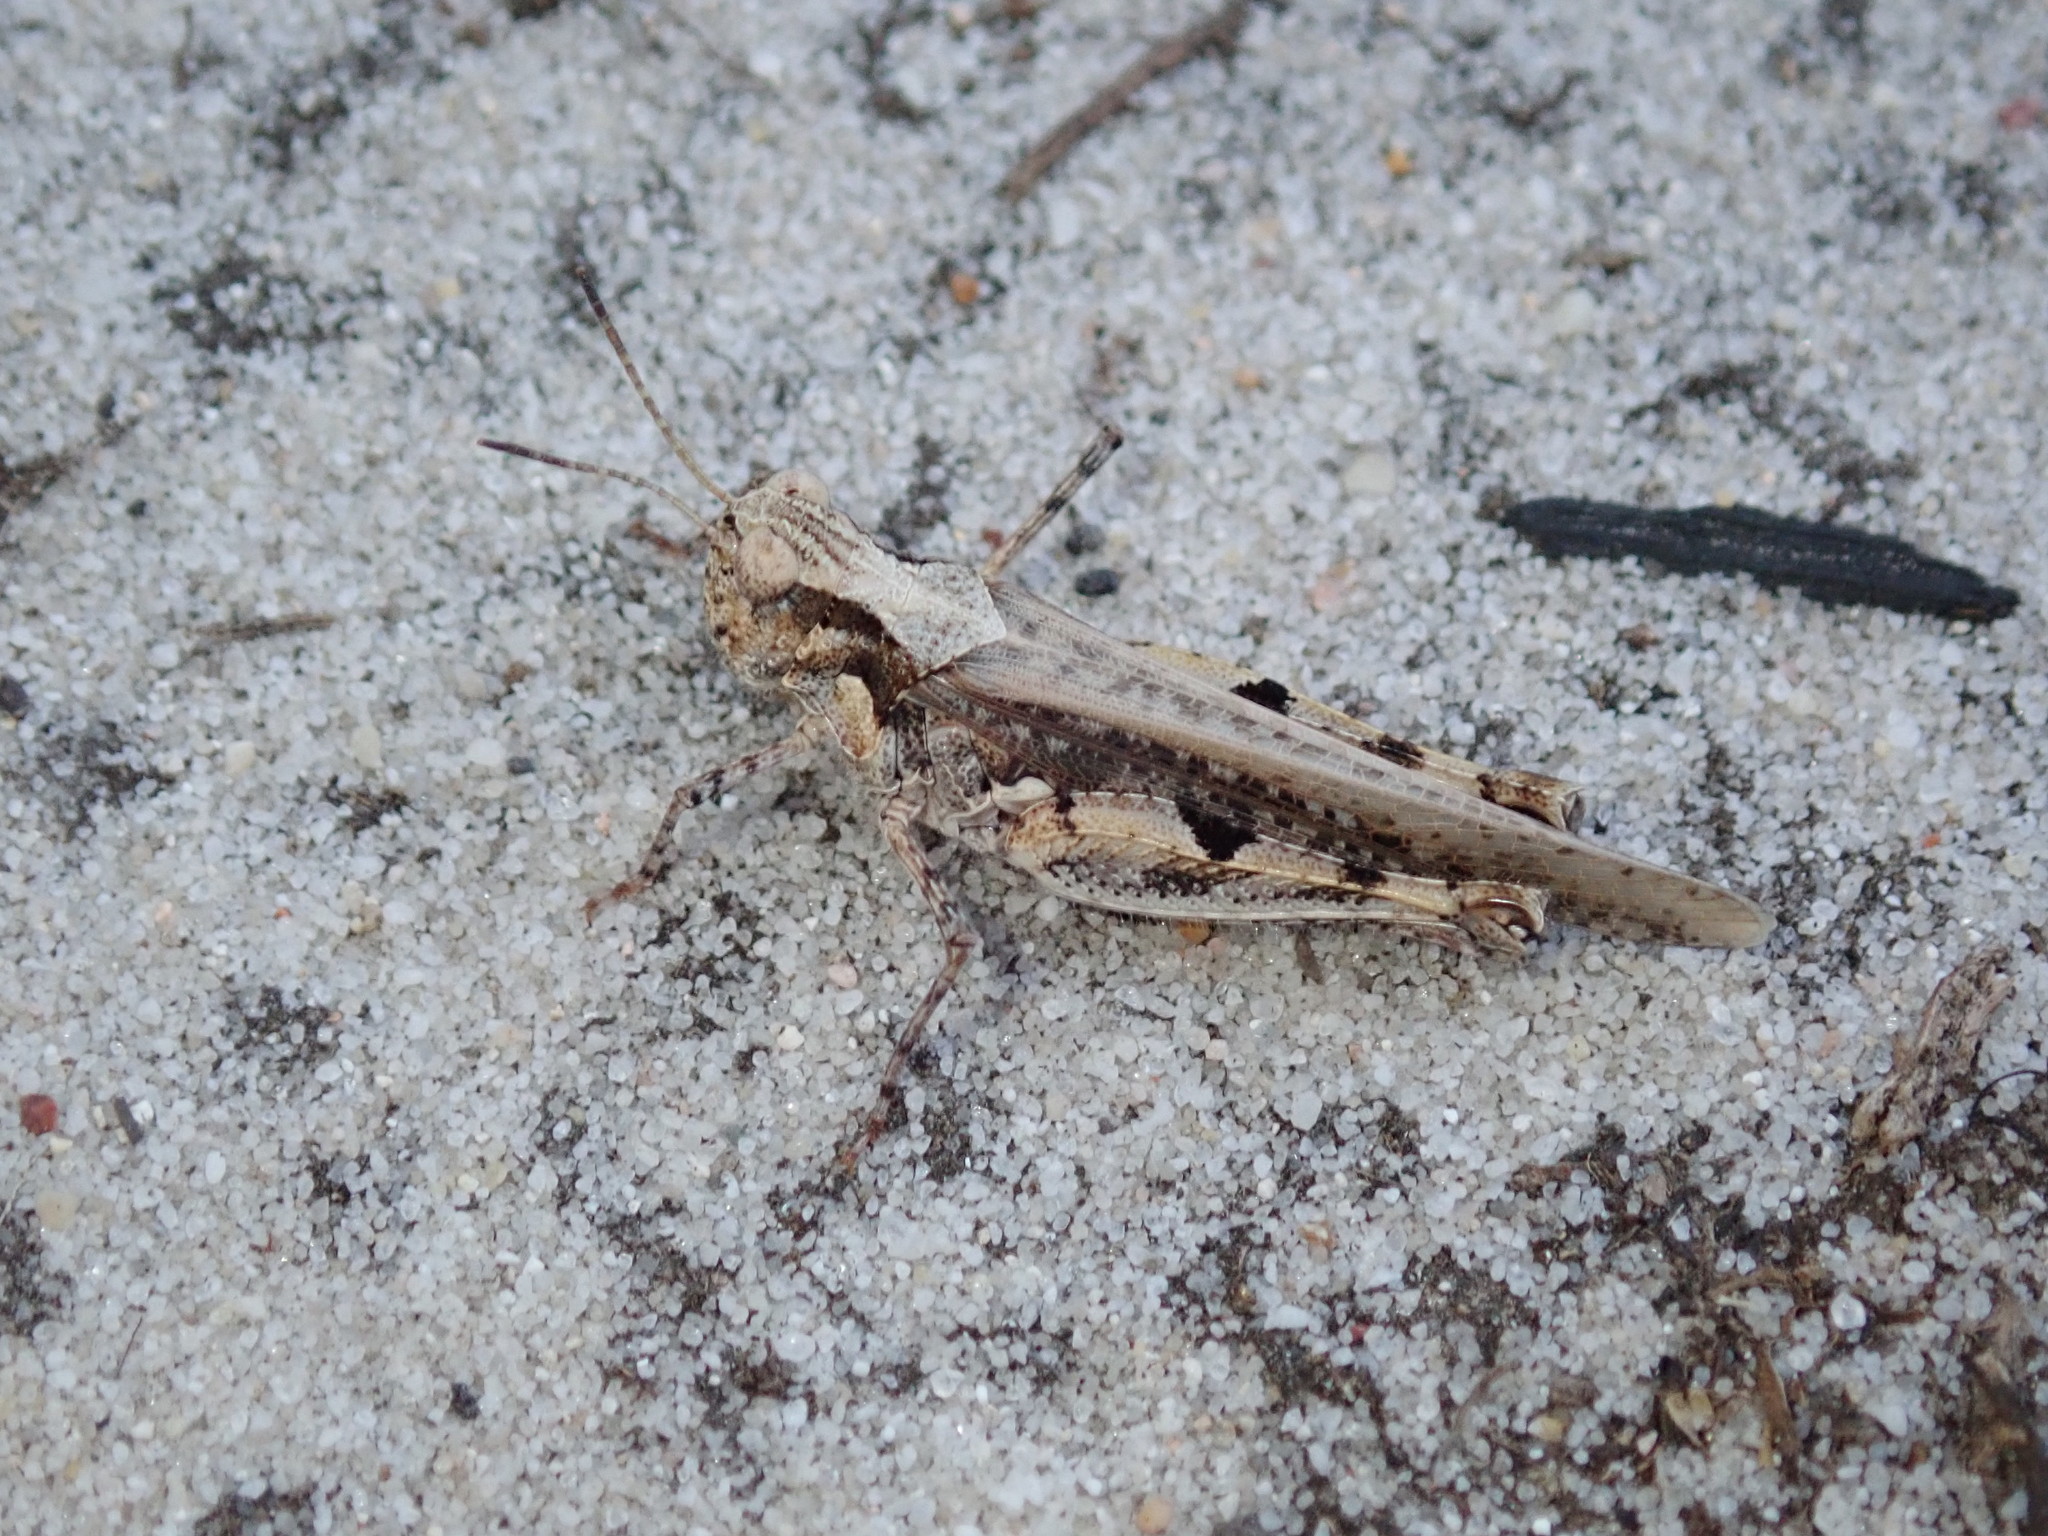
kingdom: Animalia
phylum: Arthropoda
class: Insecta
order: Orthoptera
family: Acrididae
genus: Pycnostictus
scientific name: Pycnostictus seriatus
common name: Common bandwing
